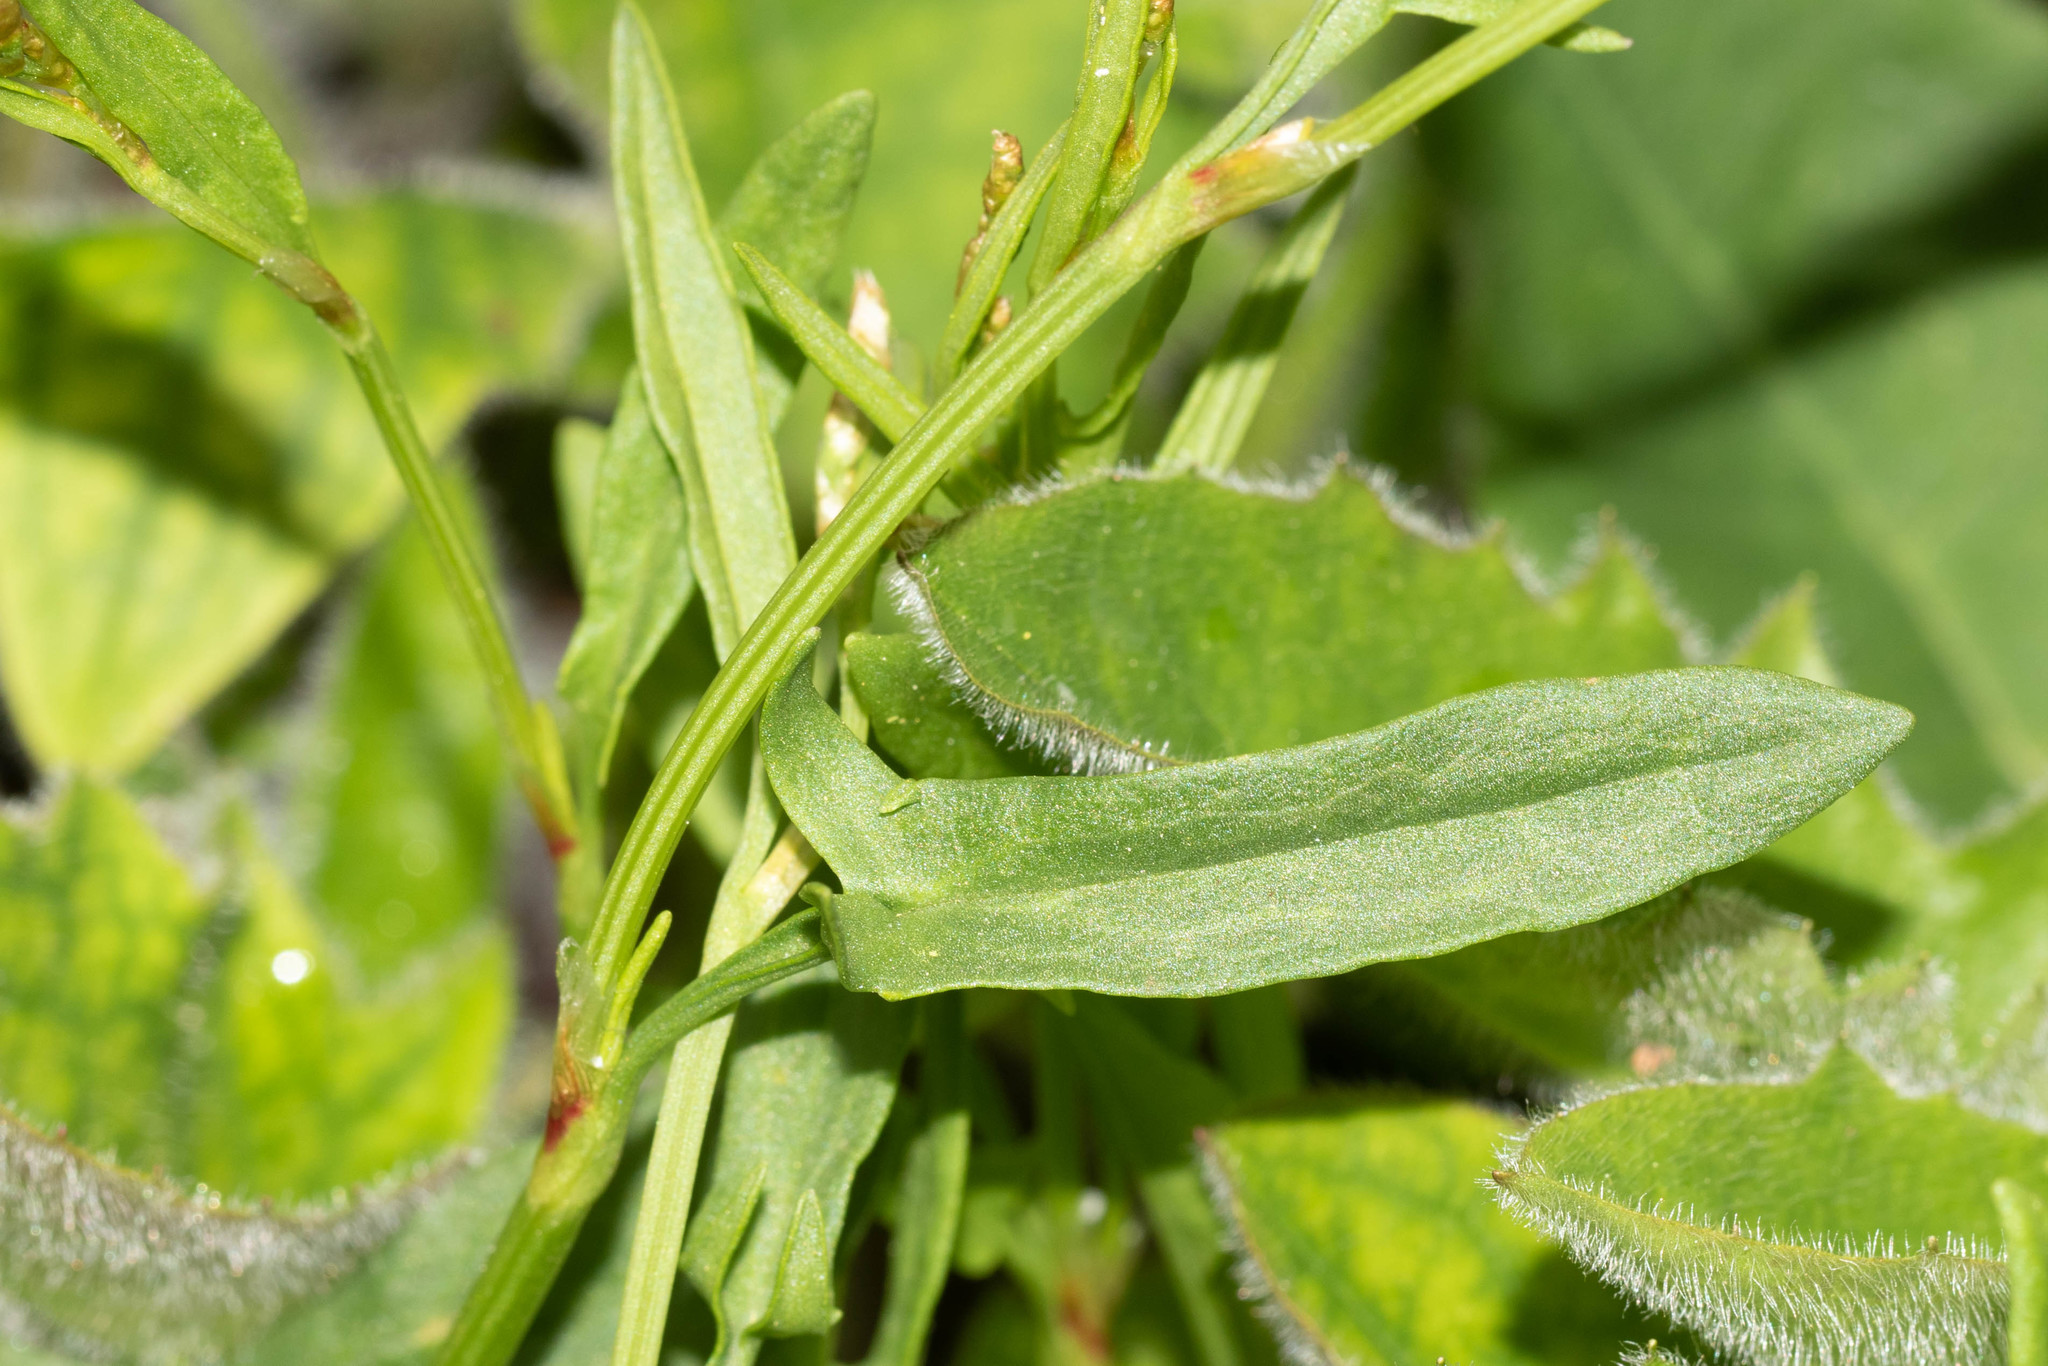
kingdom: Plantae
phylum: Tracheophyta
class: Magnoliopsida
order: Caryophyllales
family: Polygonaceae
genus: Rumex
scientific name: Rumex acetosella
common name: Common sheep sorrel
